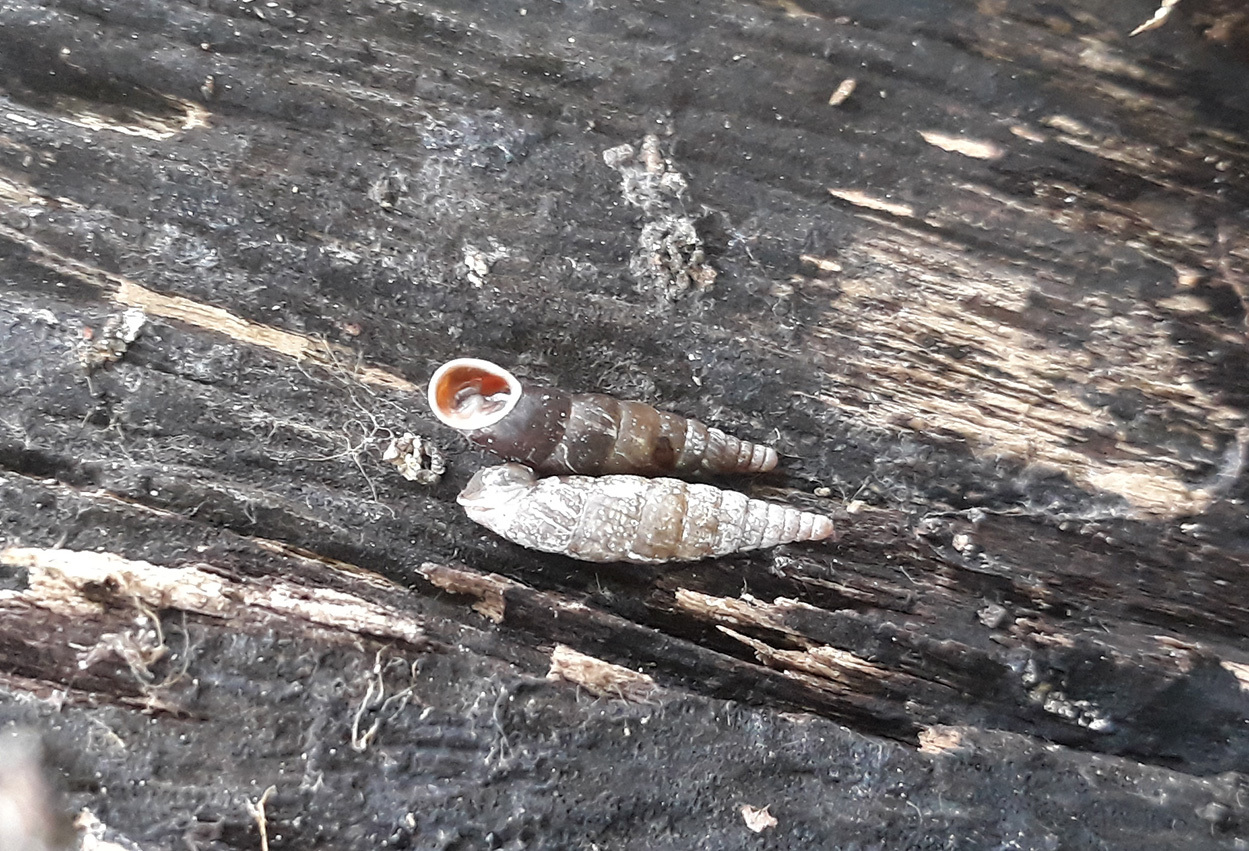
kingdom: Animalia
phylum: Mollusca
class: Gastropoda
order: Stylommatophora
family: Clausiliidae
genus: Cochlodina
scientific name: Cochlodina laminata
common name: Plaited door snail
